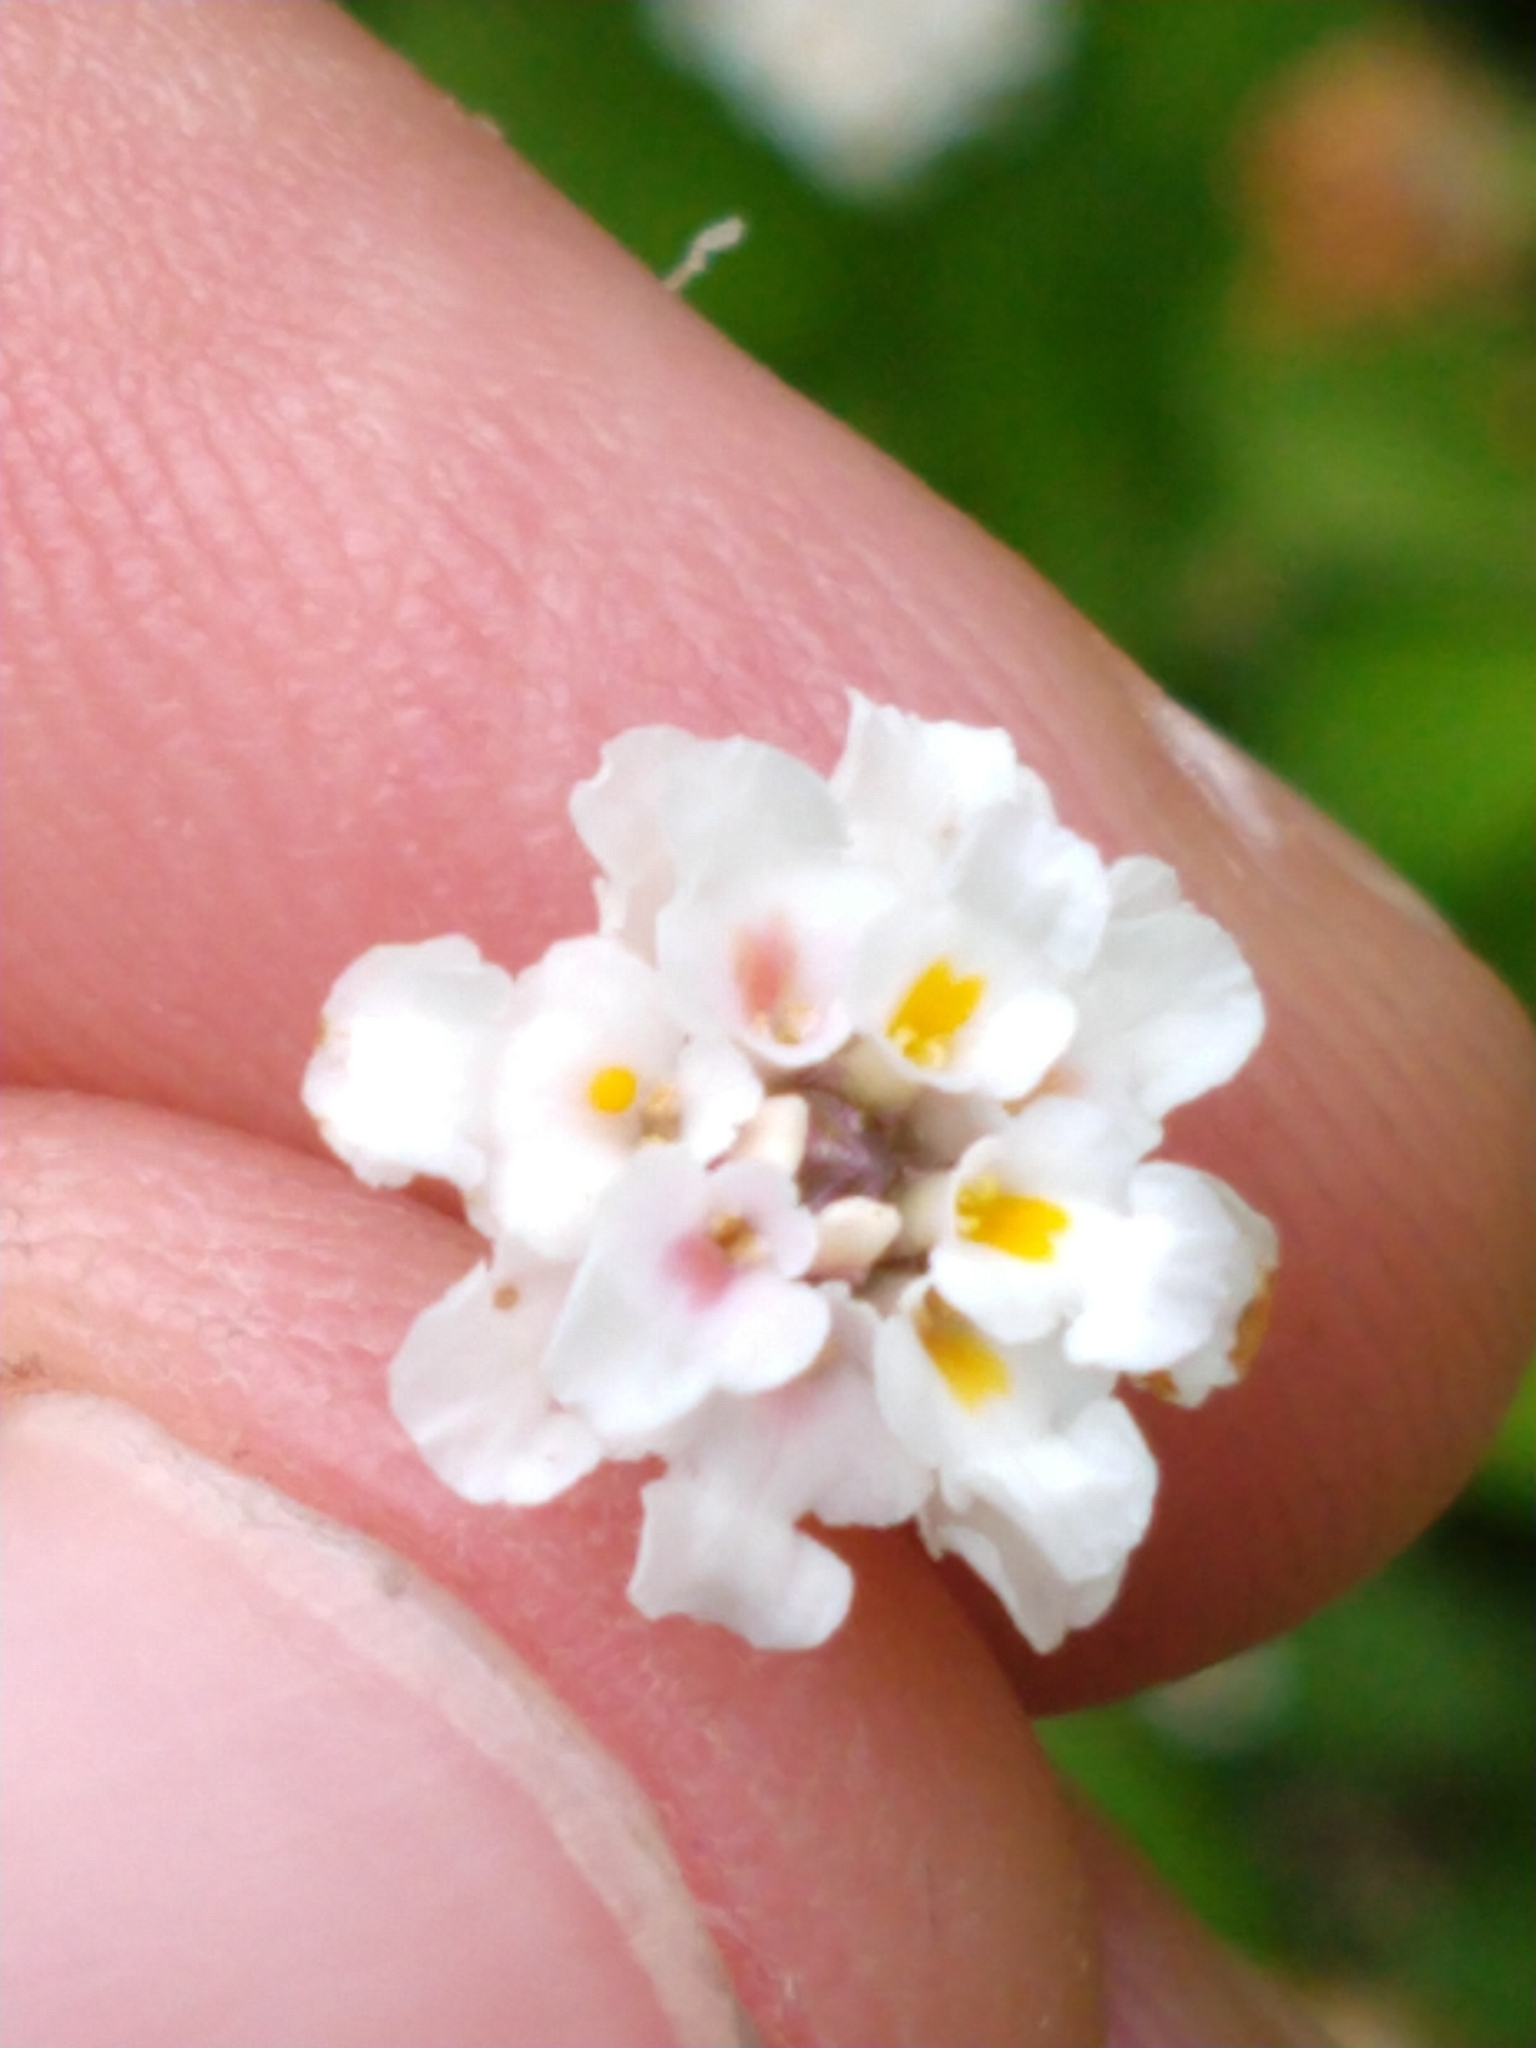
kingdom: Plantae
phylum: Tracheophyta
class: Magnoliopsida
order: Lamiales
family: Verbenaceae
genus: Phyla
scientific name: Phyla nodiflora
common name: Frogfruit
